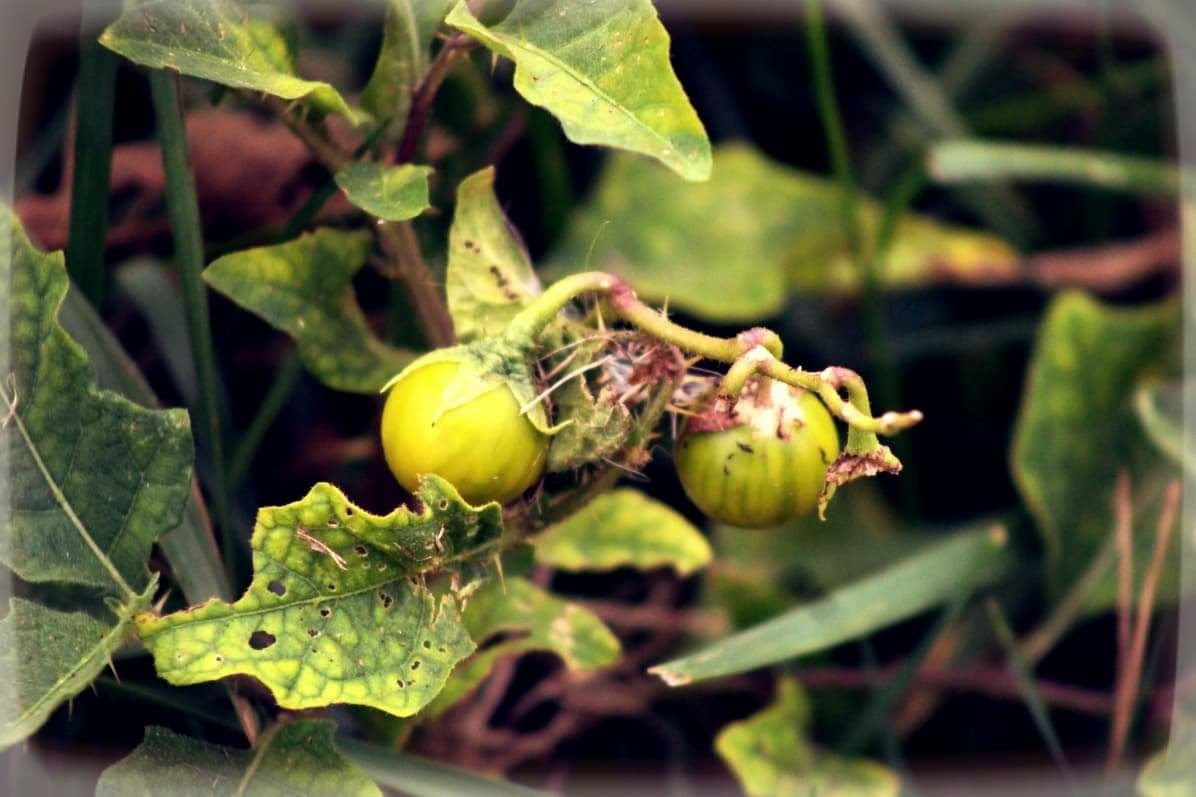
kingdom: Plantae
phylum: Tracheophyta
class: Magnoliopsida
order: Solanales
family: Solanaceae
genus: Solanum
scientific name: Solanum carolinense
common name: Horse-nettle
